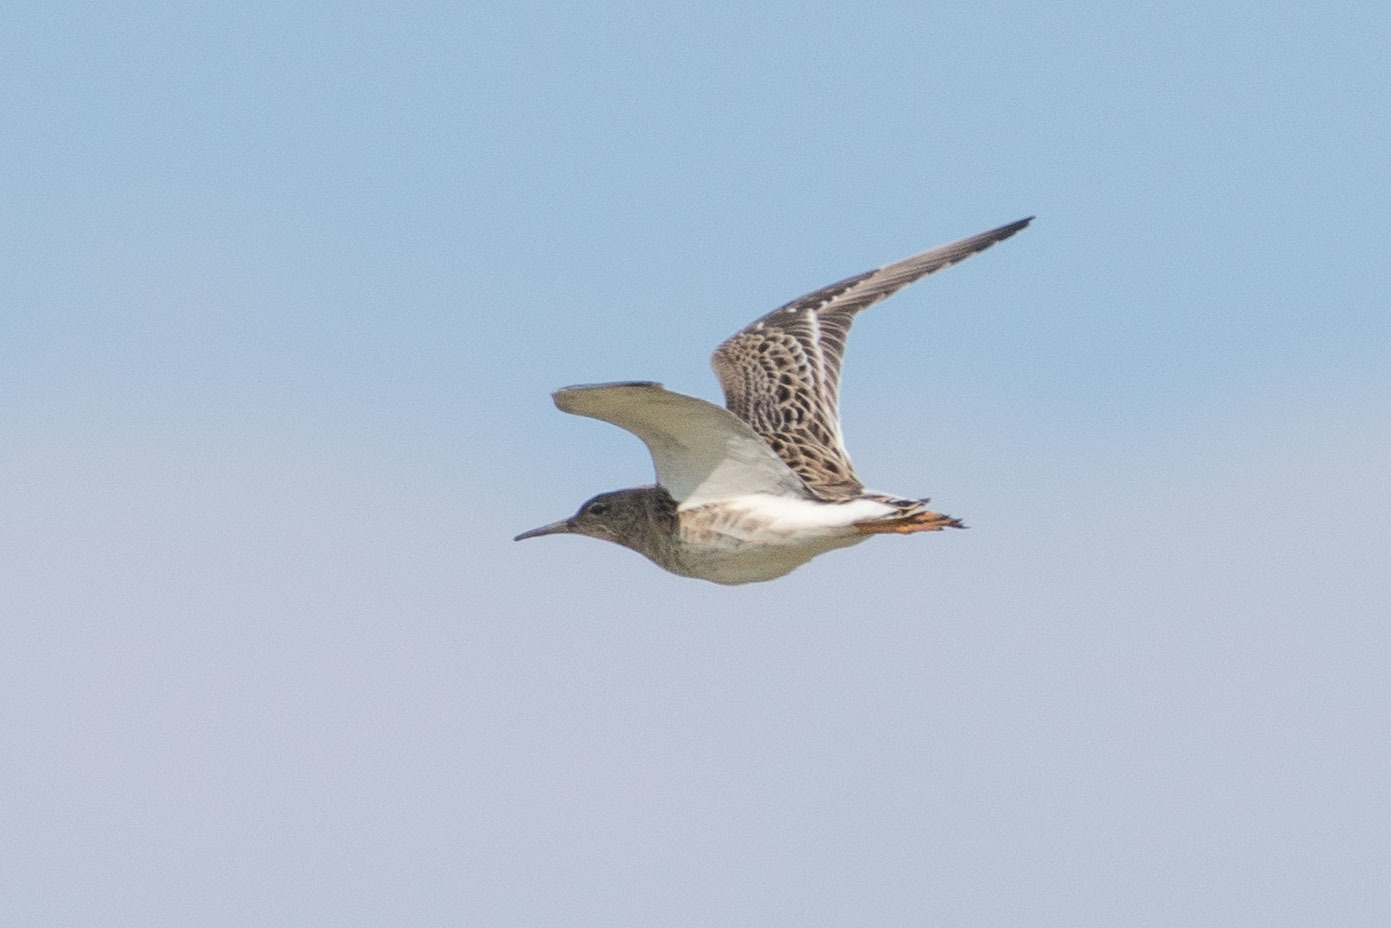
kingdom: Animalia
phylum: Chordata
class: Aves
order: Charadriiformes
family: Scolopacidae
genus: Calidris
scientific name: Calidris pugnax
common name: Ruff
